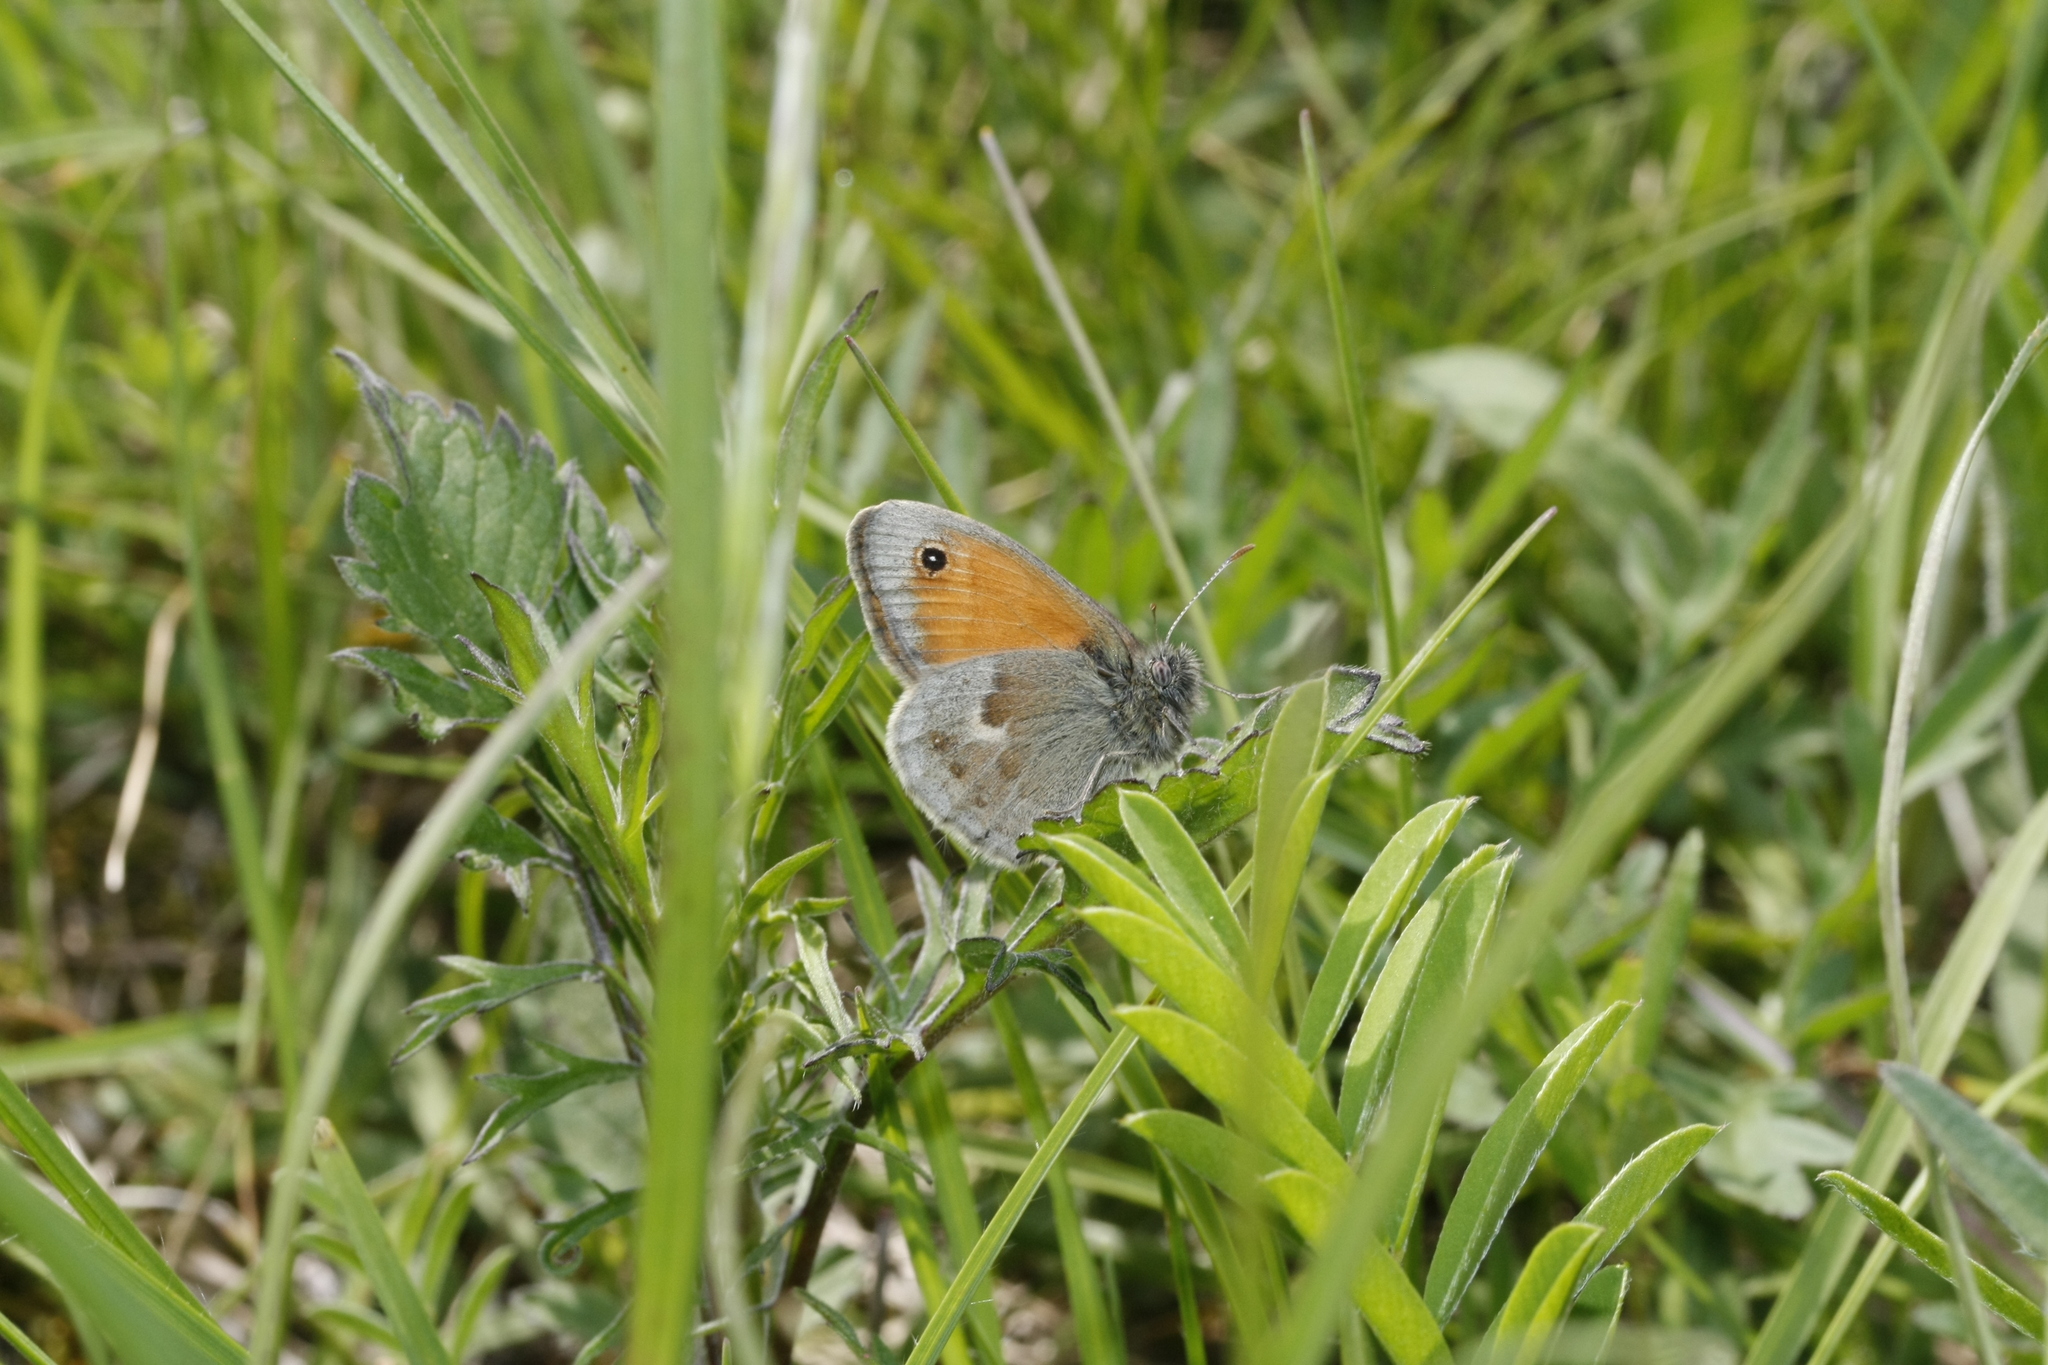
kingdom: Animalia
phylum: Arthropoda
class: Insecta
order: Lepidoptera
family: Nymphalidae
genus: Coenonympha
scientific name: Coenonympha pamphilus
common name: Small heath
